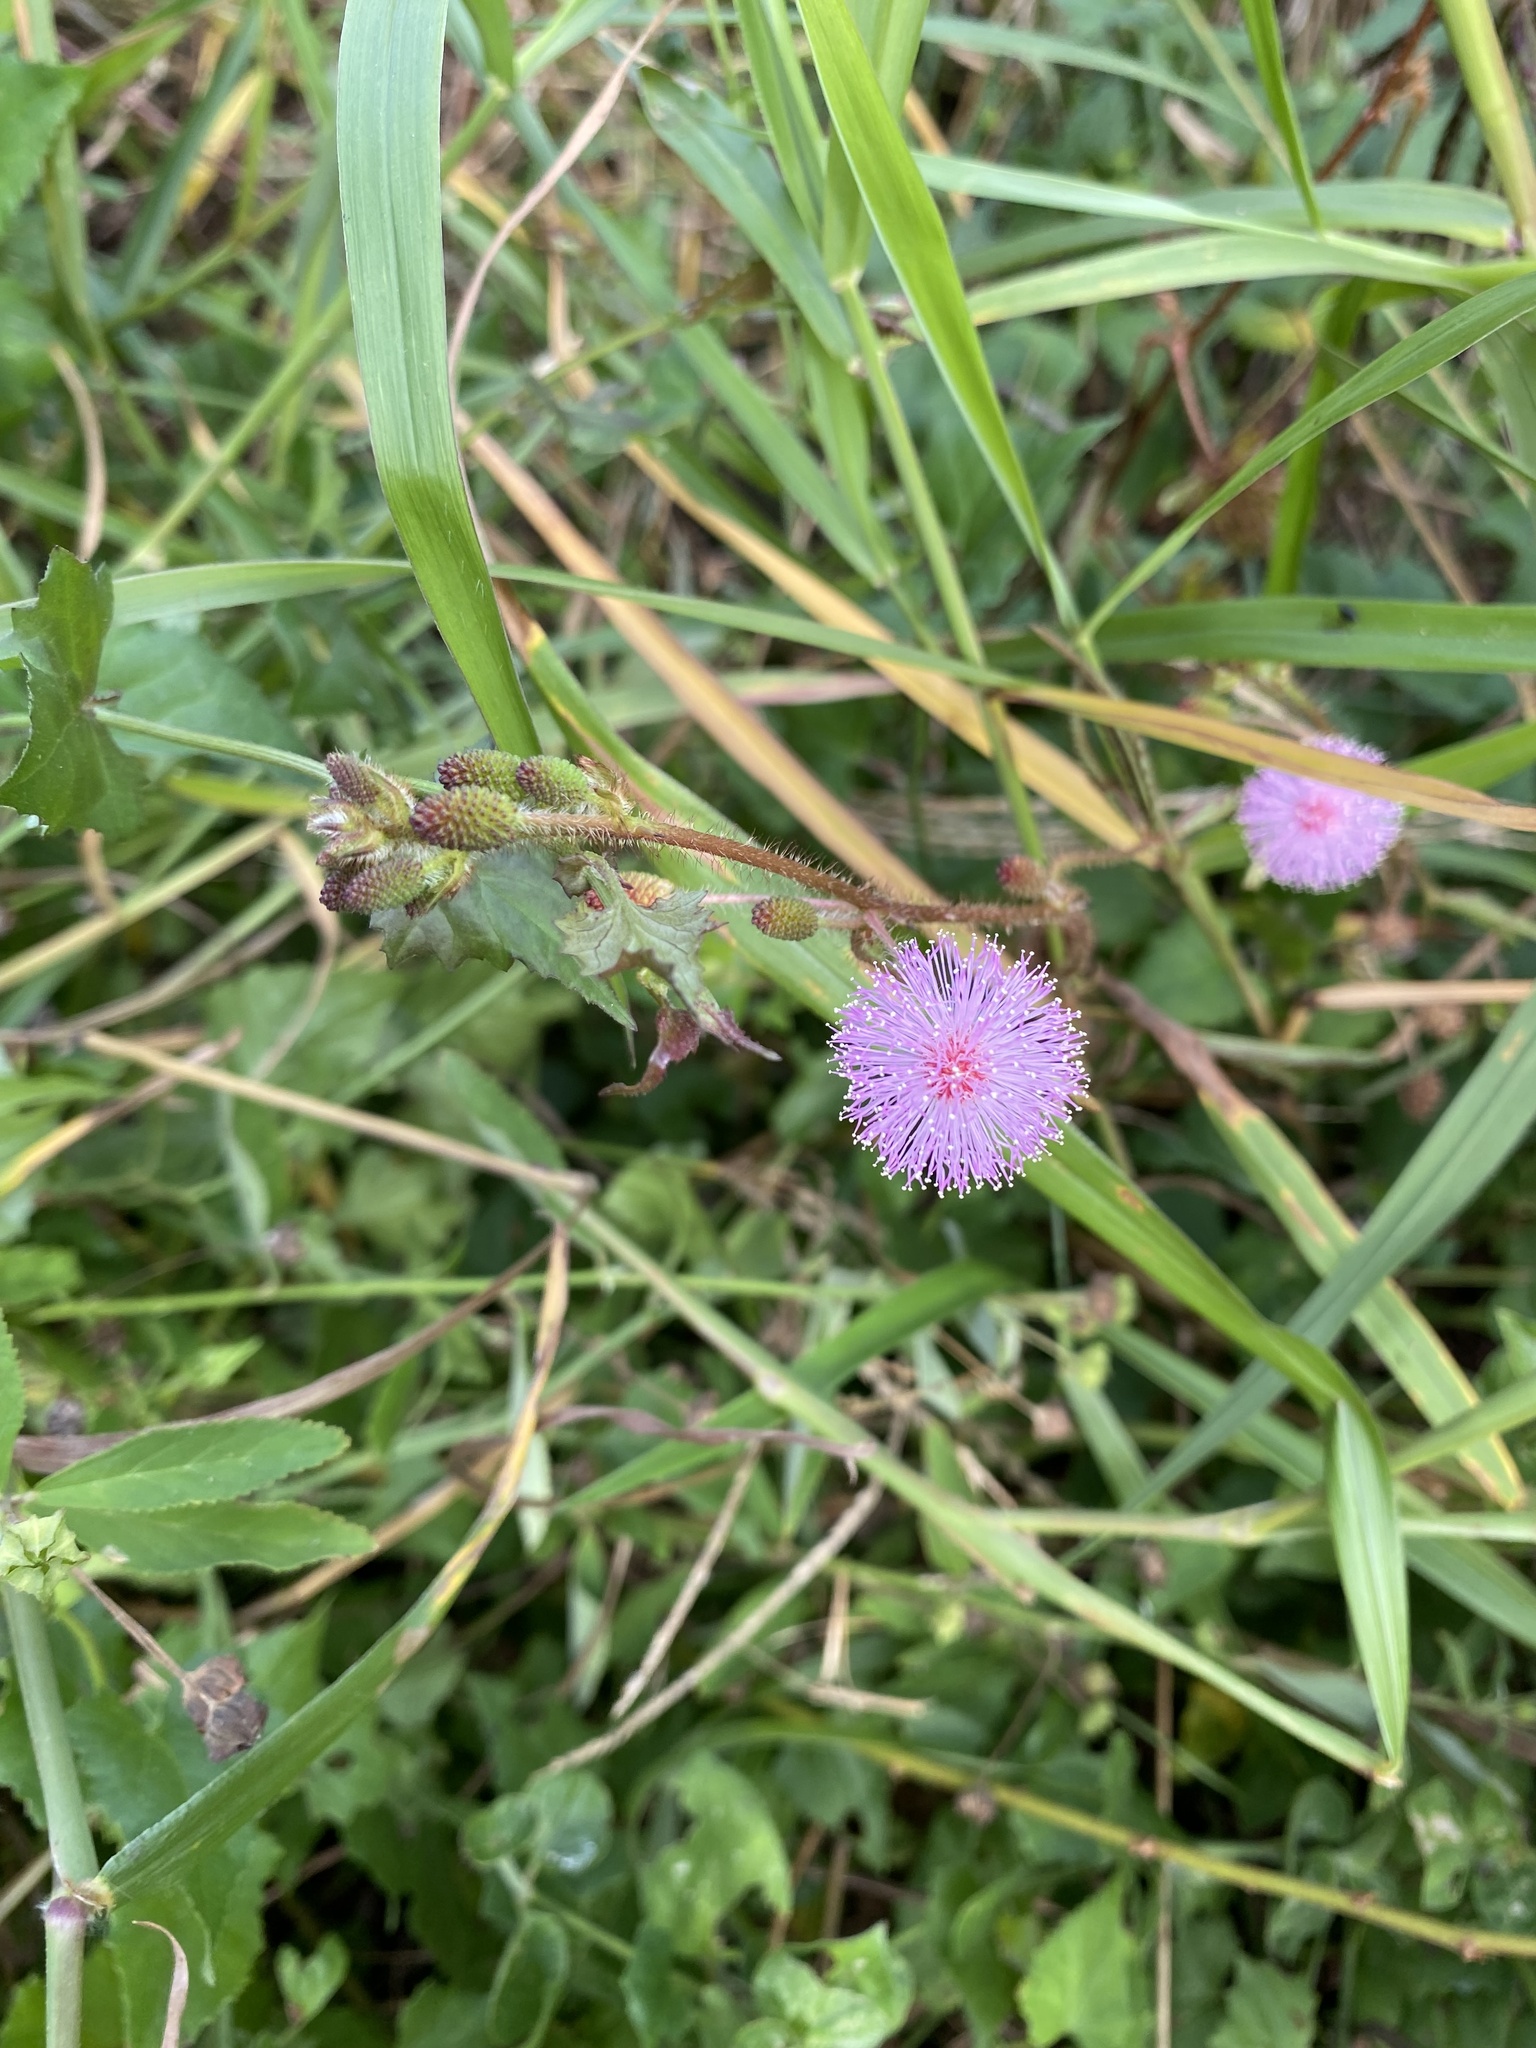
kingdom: Plantae
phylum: Tracheophyta
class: Magnoliopsida
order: Fabales
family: Fabaceae
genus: Mimosa
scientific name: Mimosa pudica
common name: Sensitive plant
